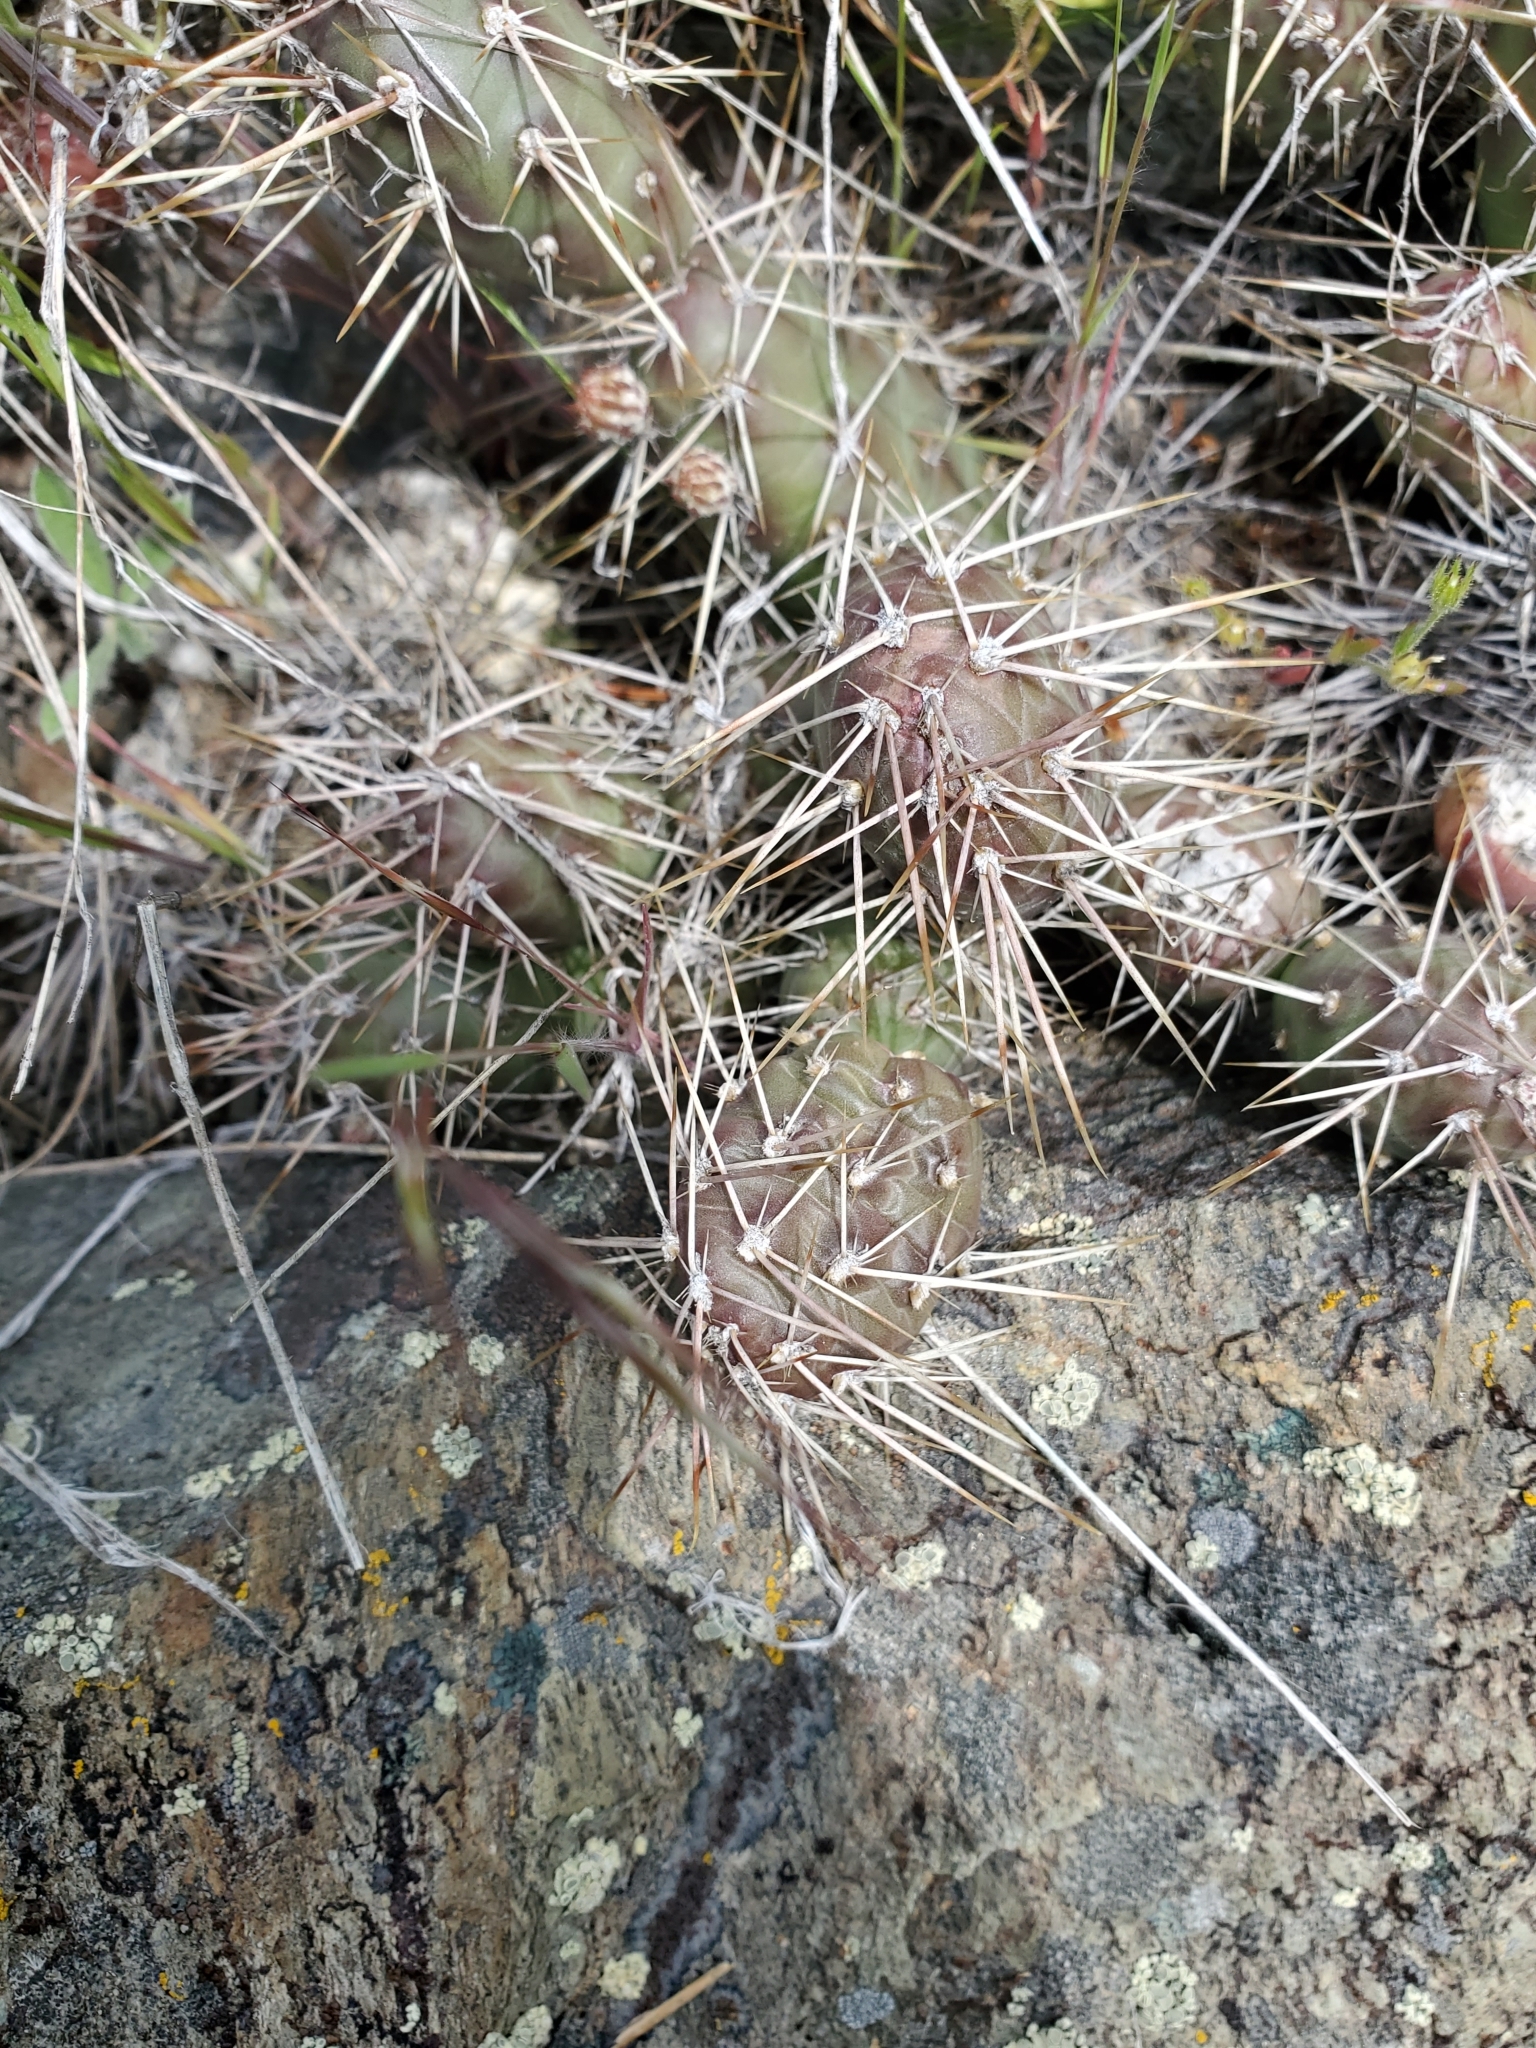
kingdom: Plantae
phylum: Tracheophyta
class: Magnoliopsida
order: Caryophyllales
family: Cactaceae
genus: Opuntia
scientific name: Opuntia fragilis
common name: Brittle cactus
